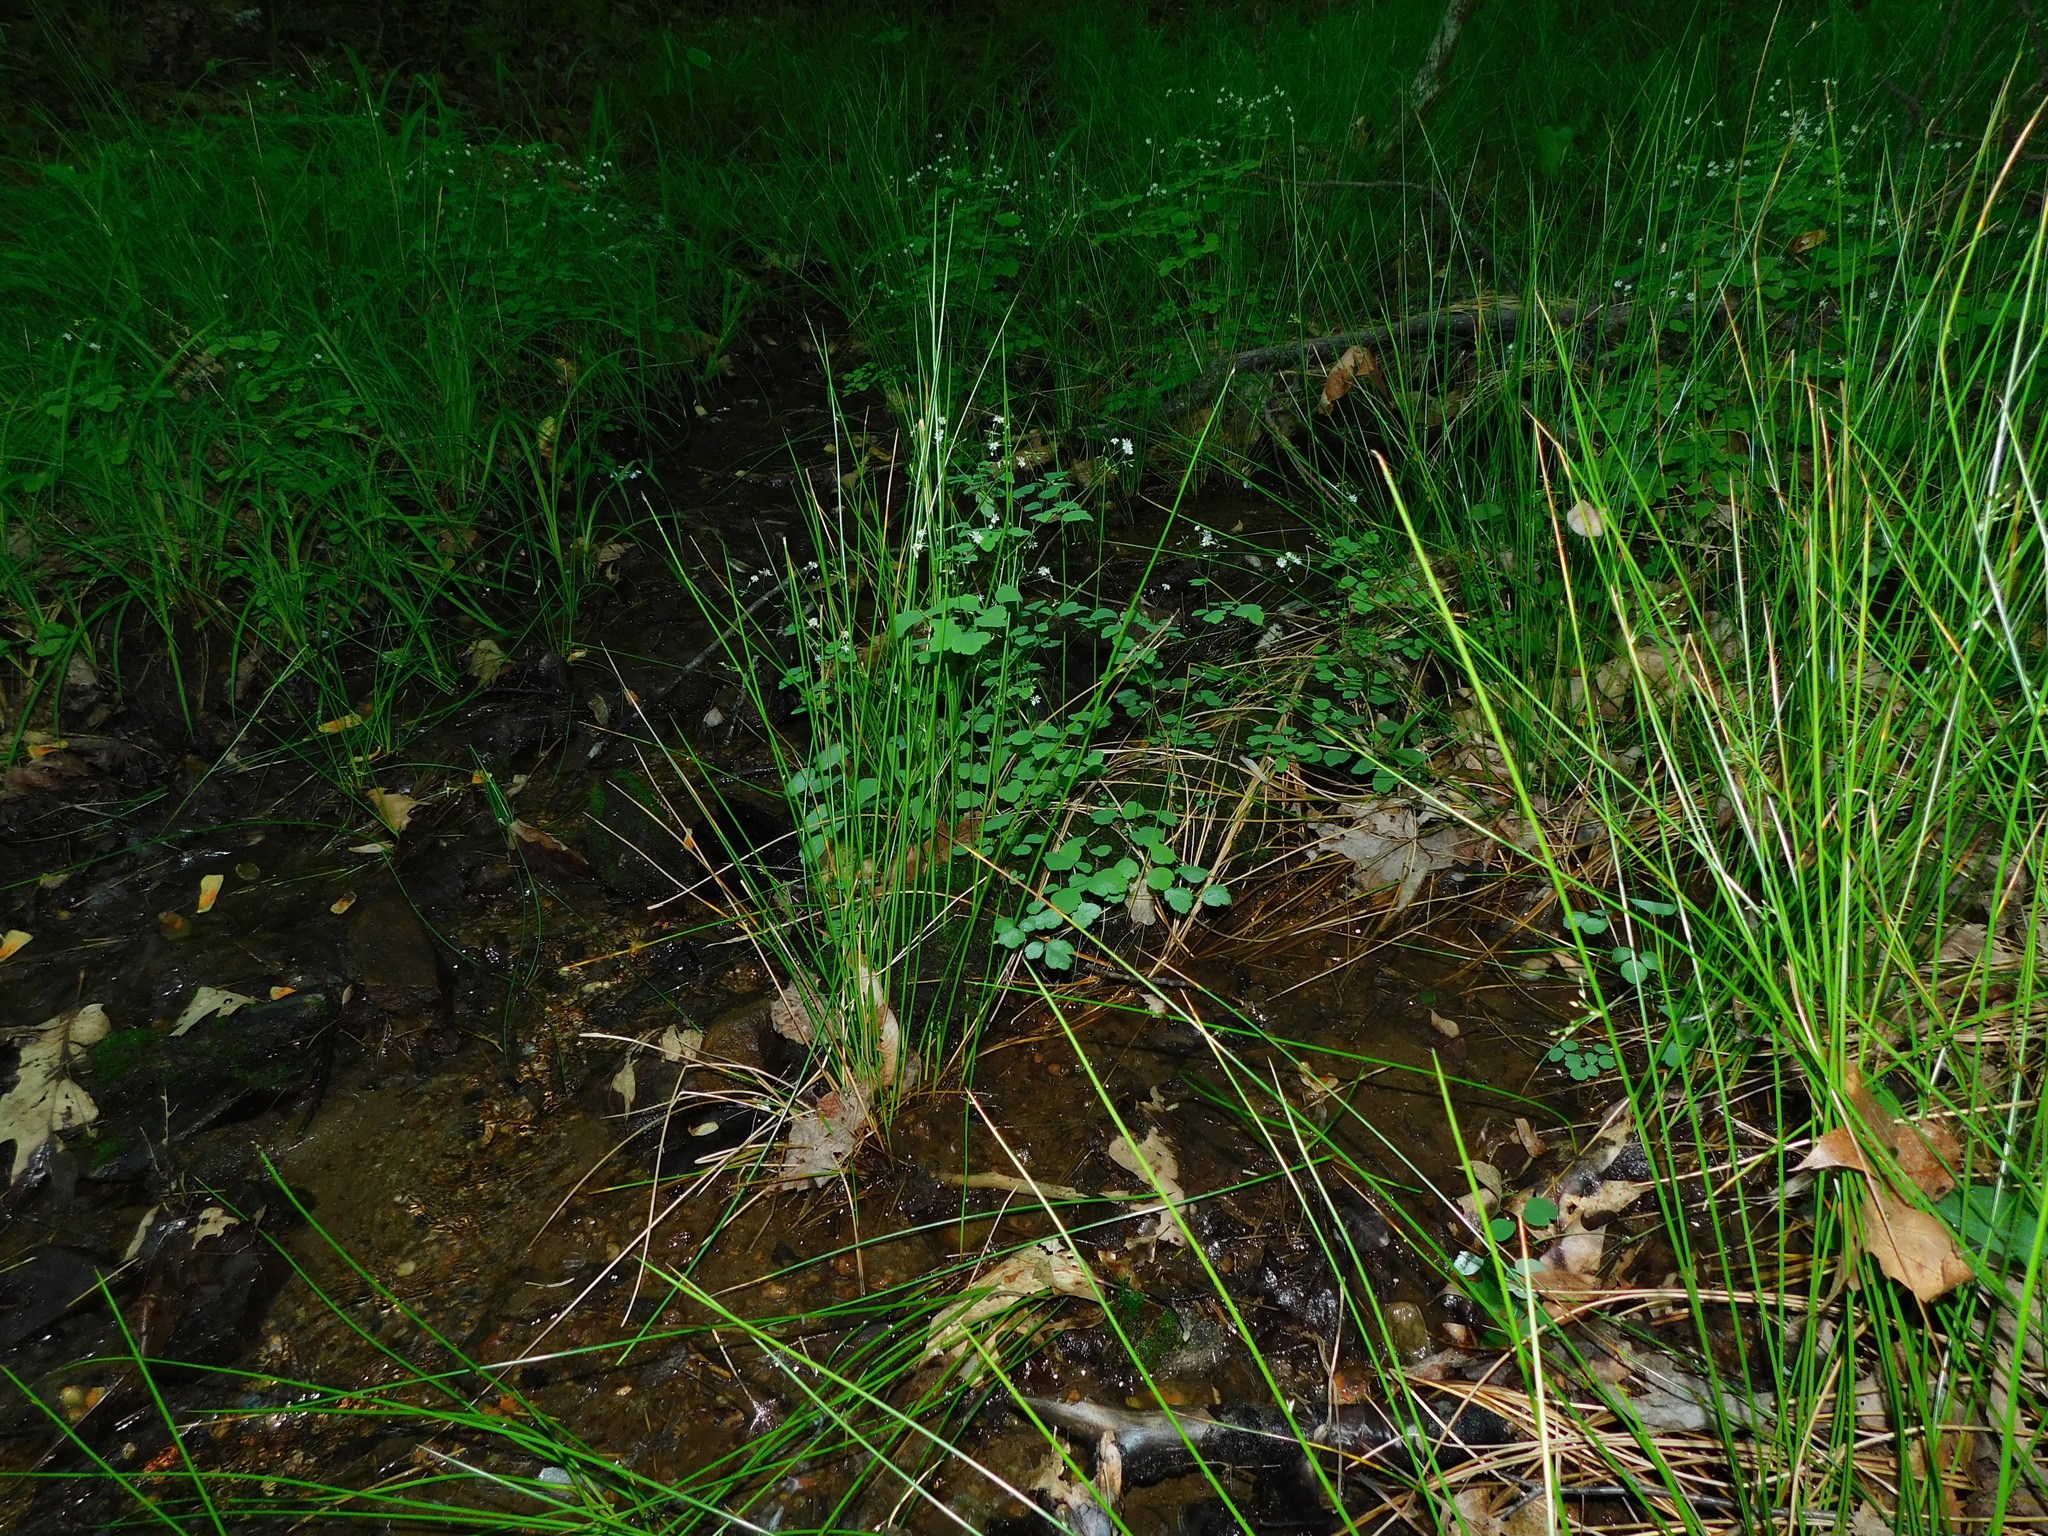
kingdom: Plantae
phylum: Tracheophyta
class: Magnoliopsida
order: Ranunculales
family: Ranunculaceae
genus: Thalictrum
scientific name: Thalictrum clavatum
